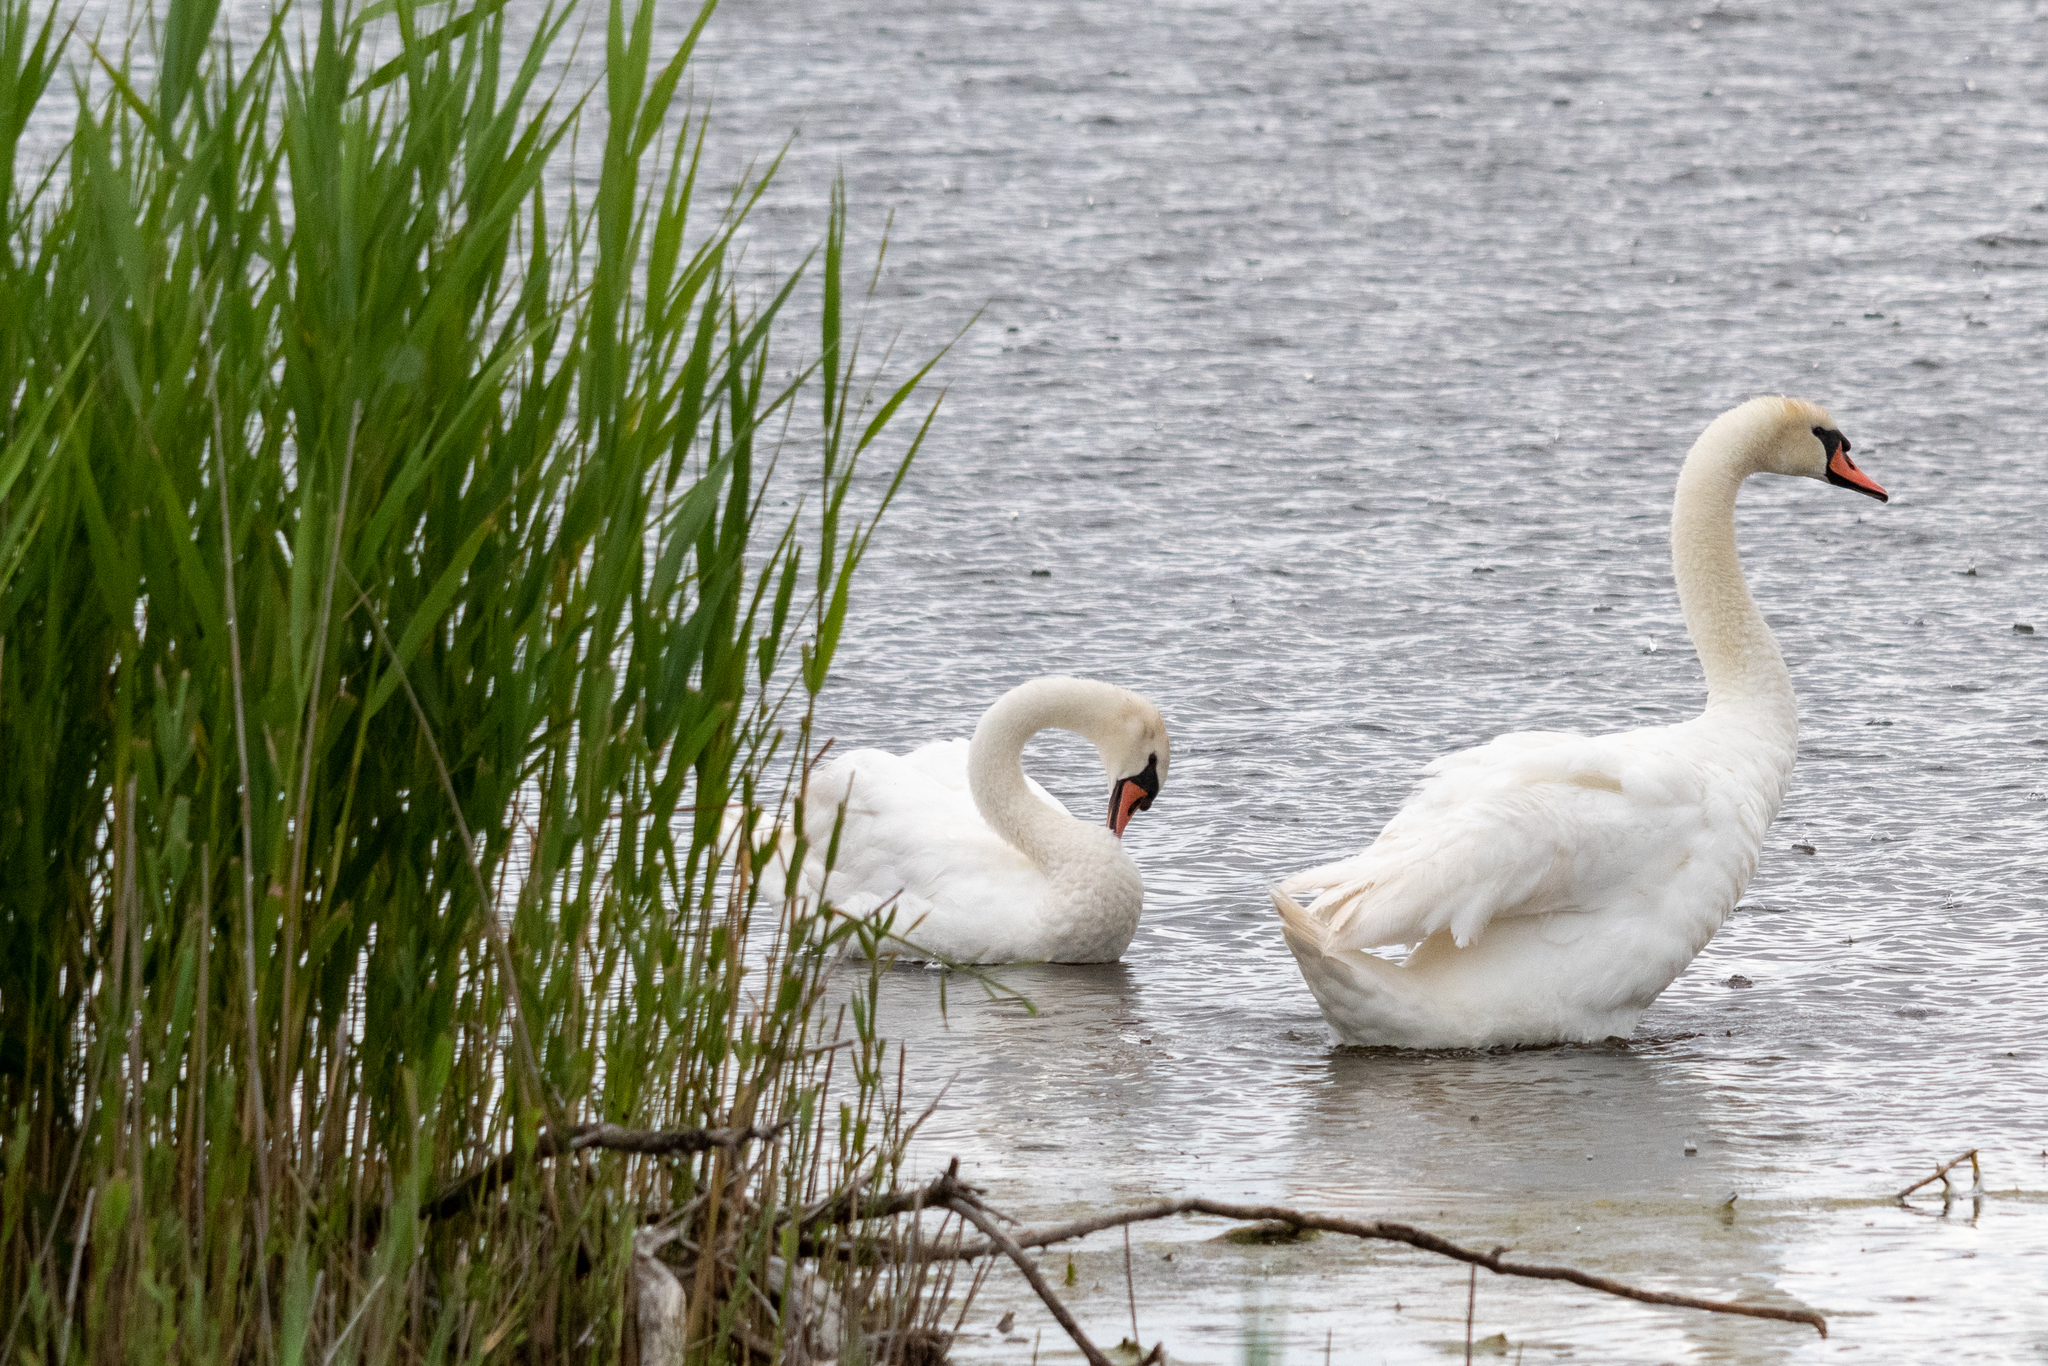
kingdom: Animalia
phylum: Chordata
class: Aves
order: Anseriformes
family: Anatidae
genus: Cygnus
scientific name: Cygnus olor
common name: Mute swan
